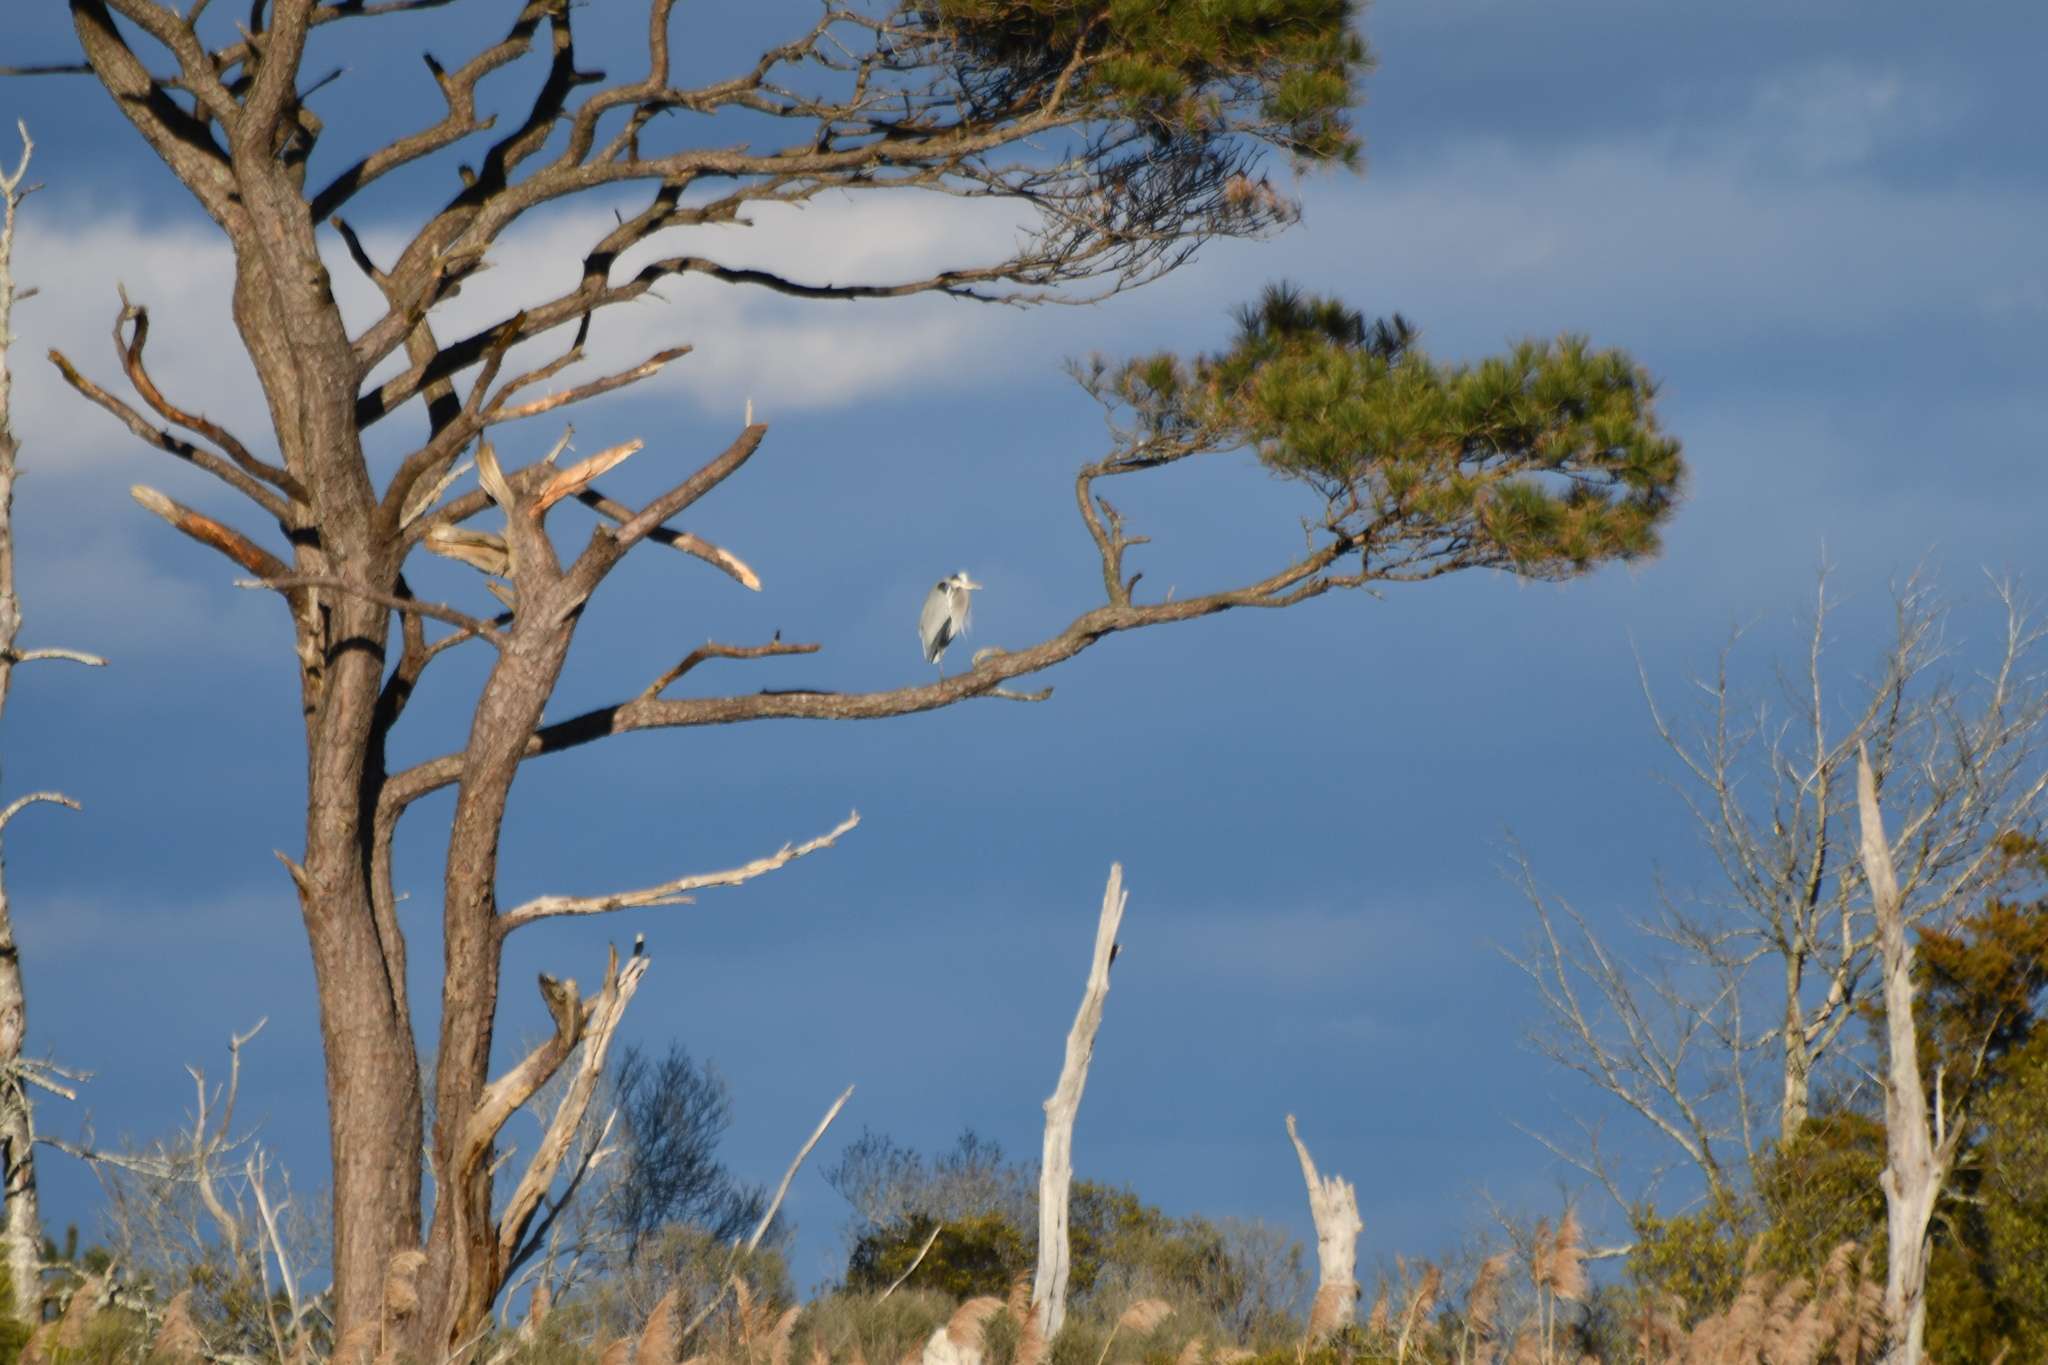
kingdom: Animalia
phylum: Chordata
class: Aves
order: Pelecaniformes
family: Ardeidae
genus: Ardea
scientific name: Ardea herodias
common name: Great blue heron
